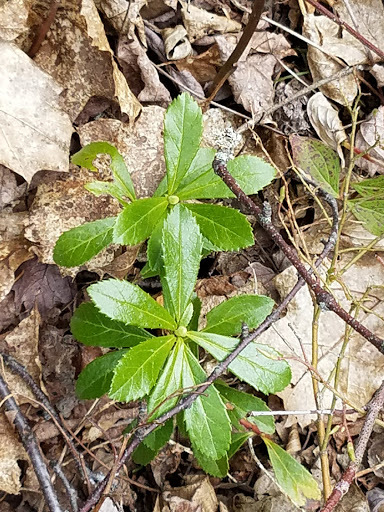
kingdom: Plantae
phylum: Tracheophyta
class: Magnoliopsida
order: Ericales
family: Ericaceae
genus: Chimaphila
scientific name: Chimaphila umbellata
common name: Pipsissewa
